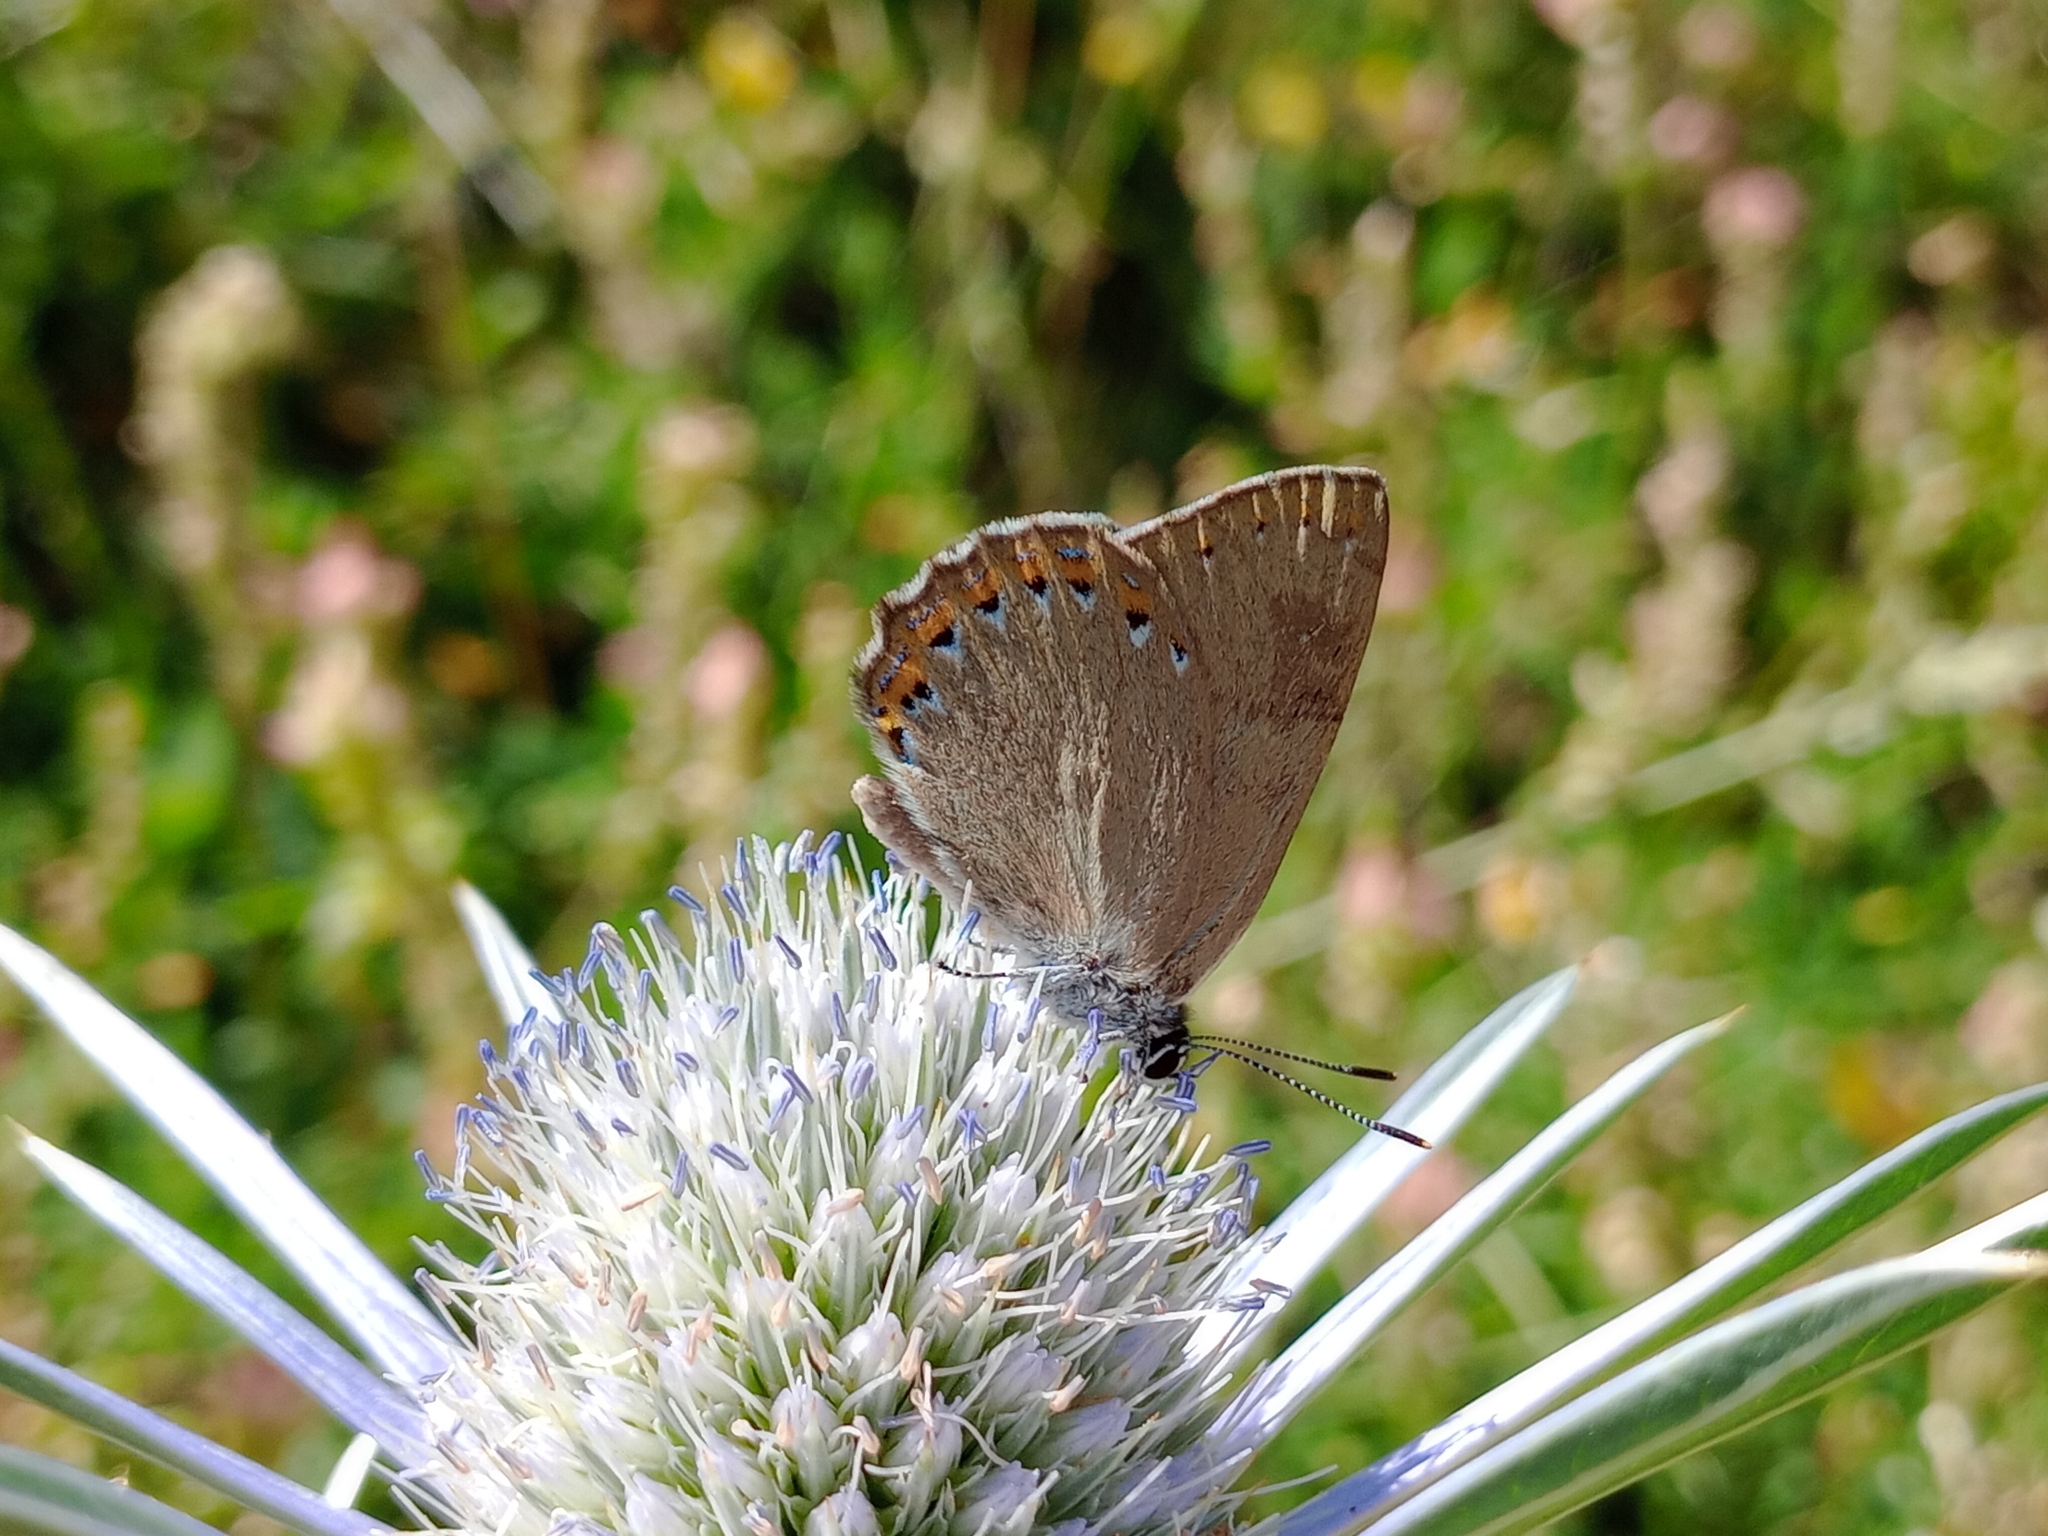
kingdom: Animalia
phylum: Arthropoda
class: Insecta
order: Lepidoptera
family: Lycaenidae
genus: Laeosopis
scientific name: Laeosopis roboris
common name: Spanish purple hairstreak
